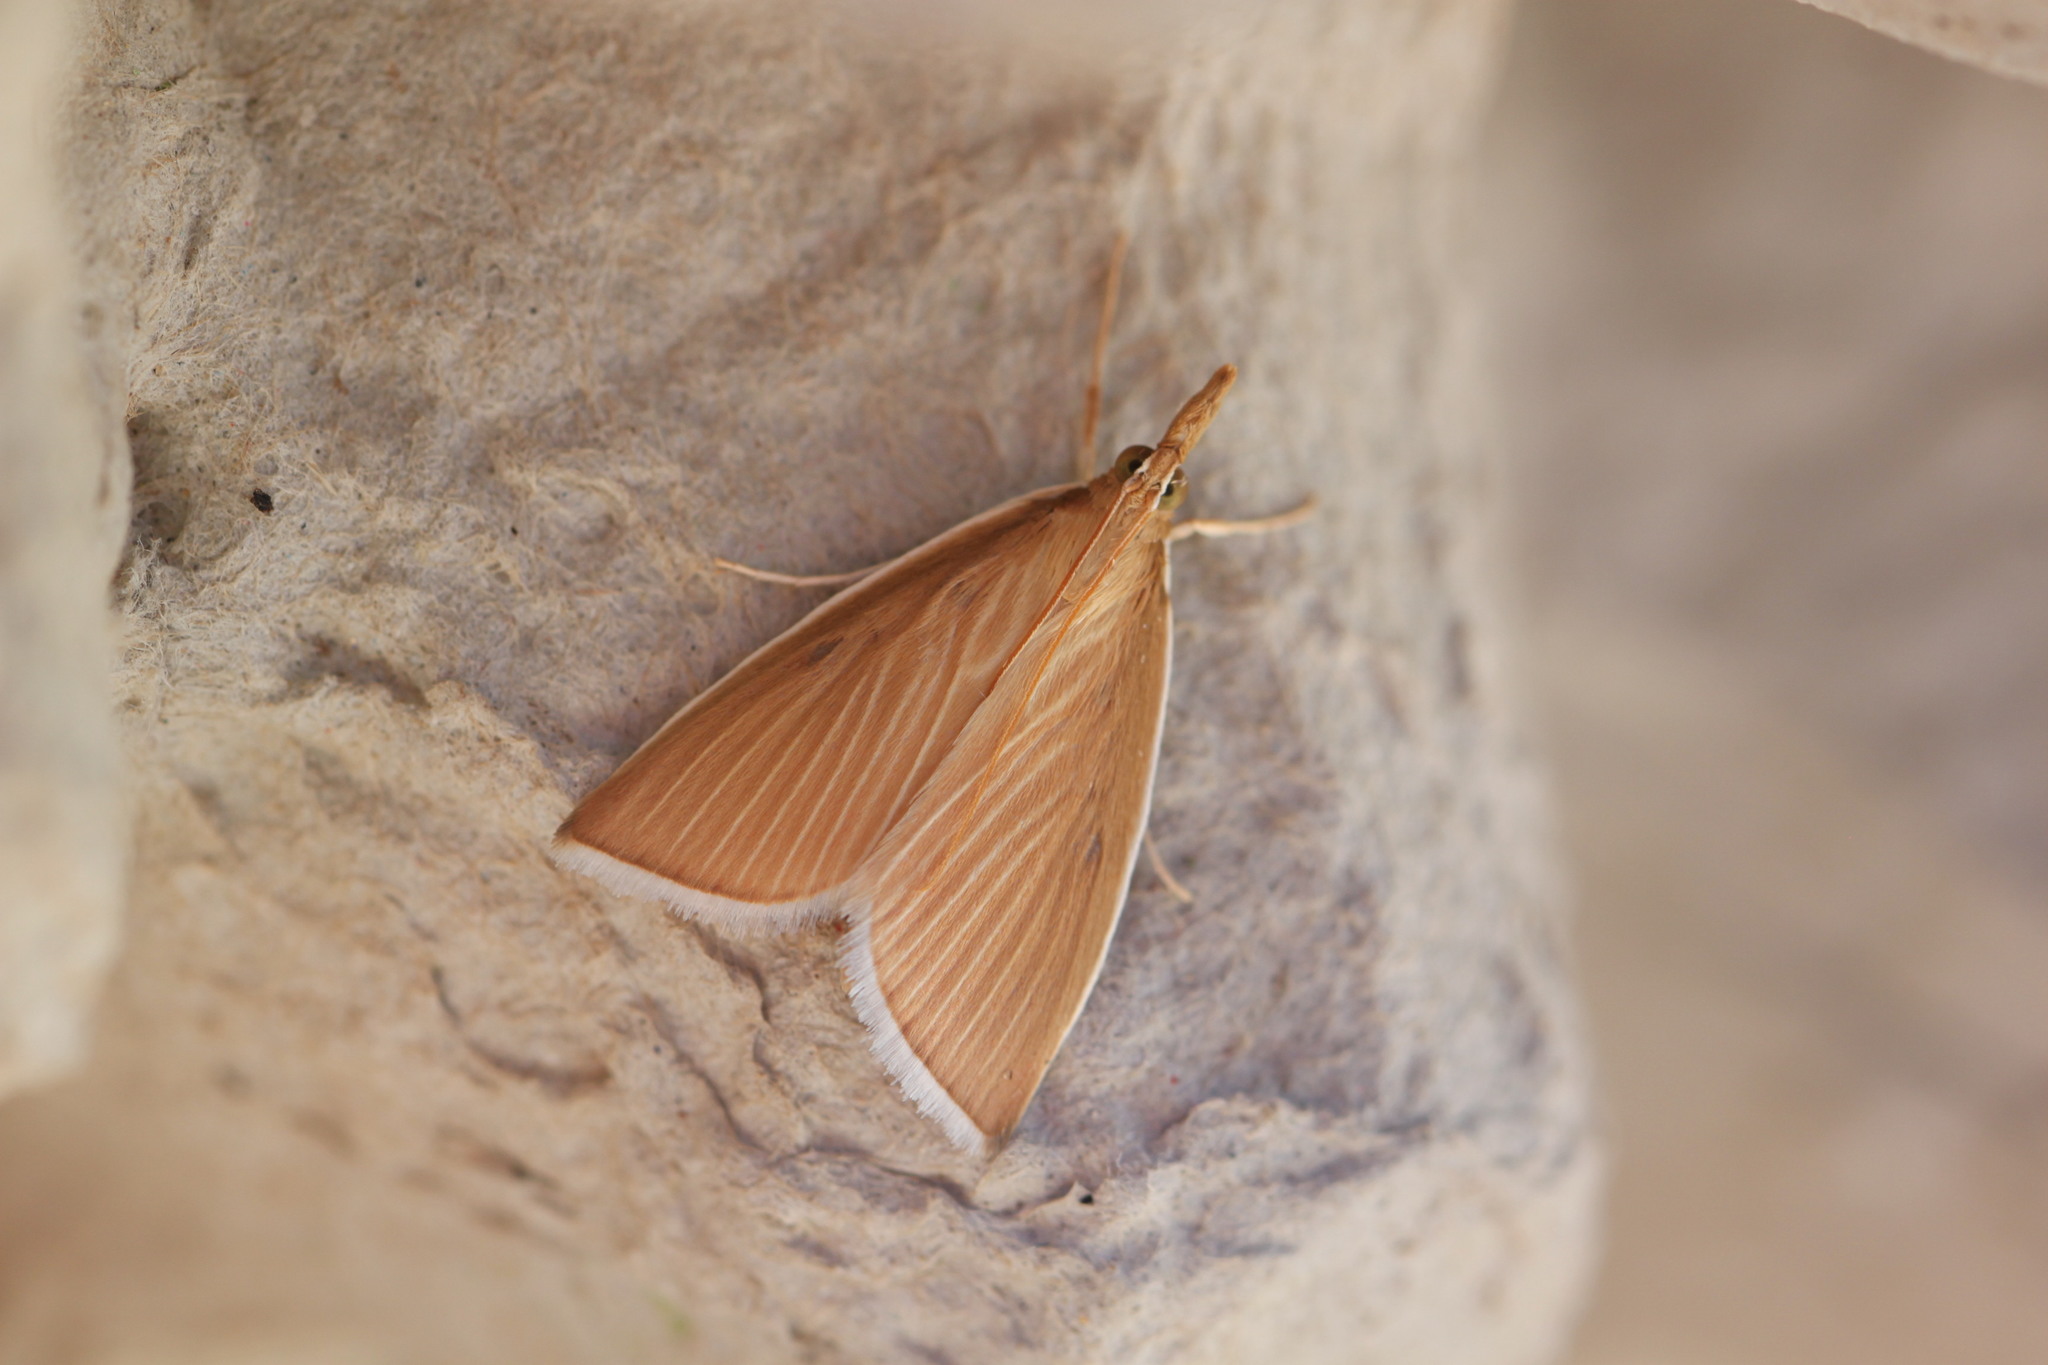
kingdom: Animalia
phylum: Arthropoda
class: Insecta
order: Lepidoptera
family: Crambidae
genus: Calamochrous
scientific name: Calamochrous Sclerocona acutella
